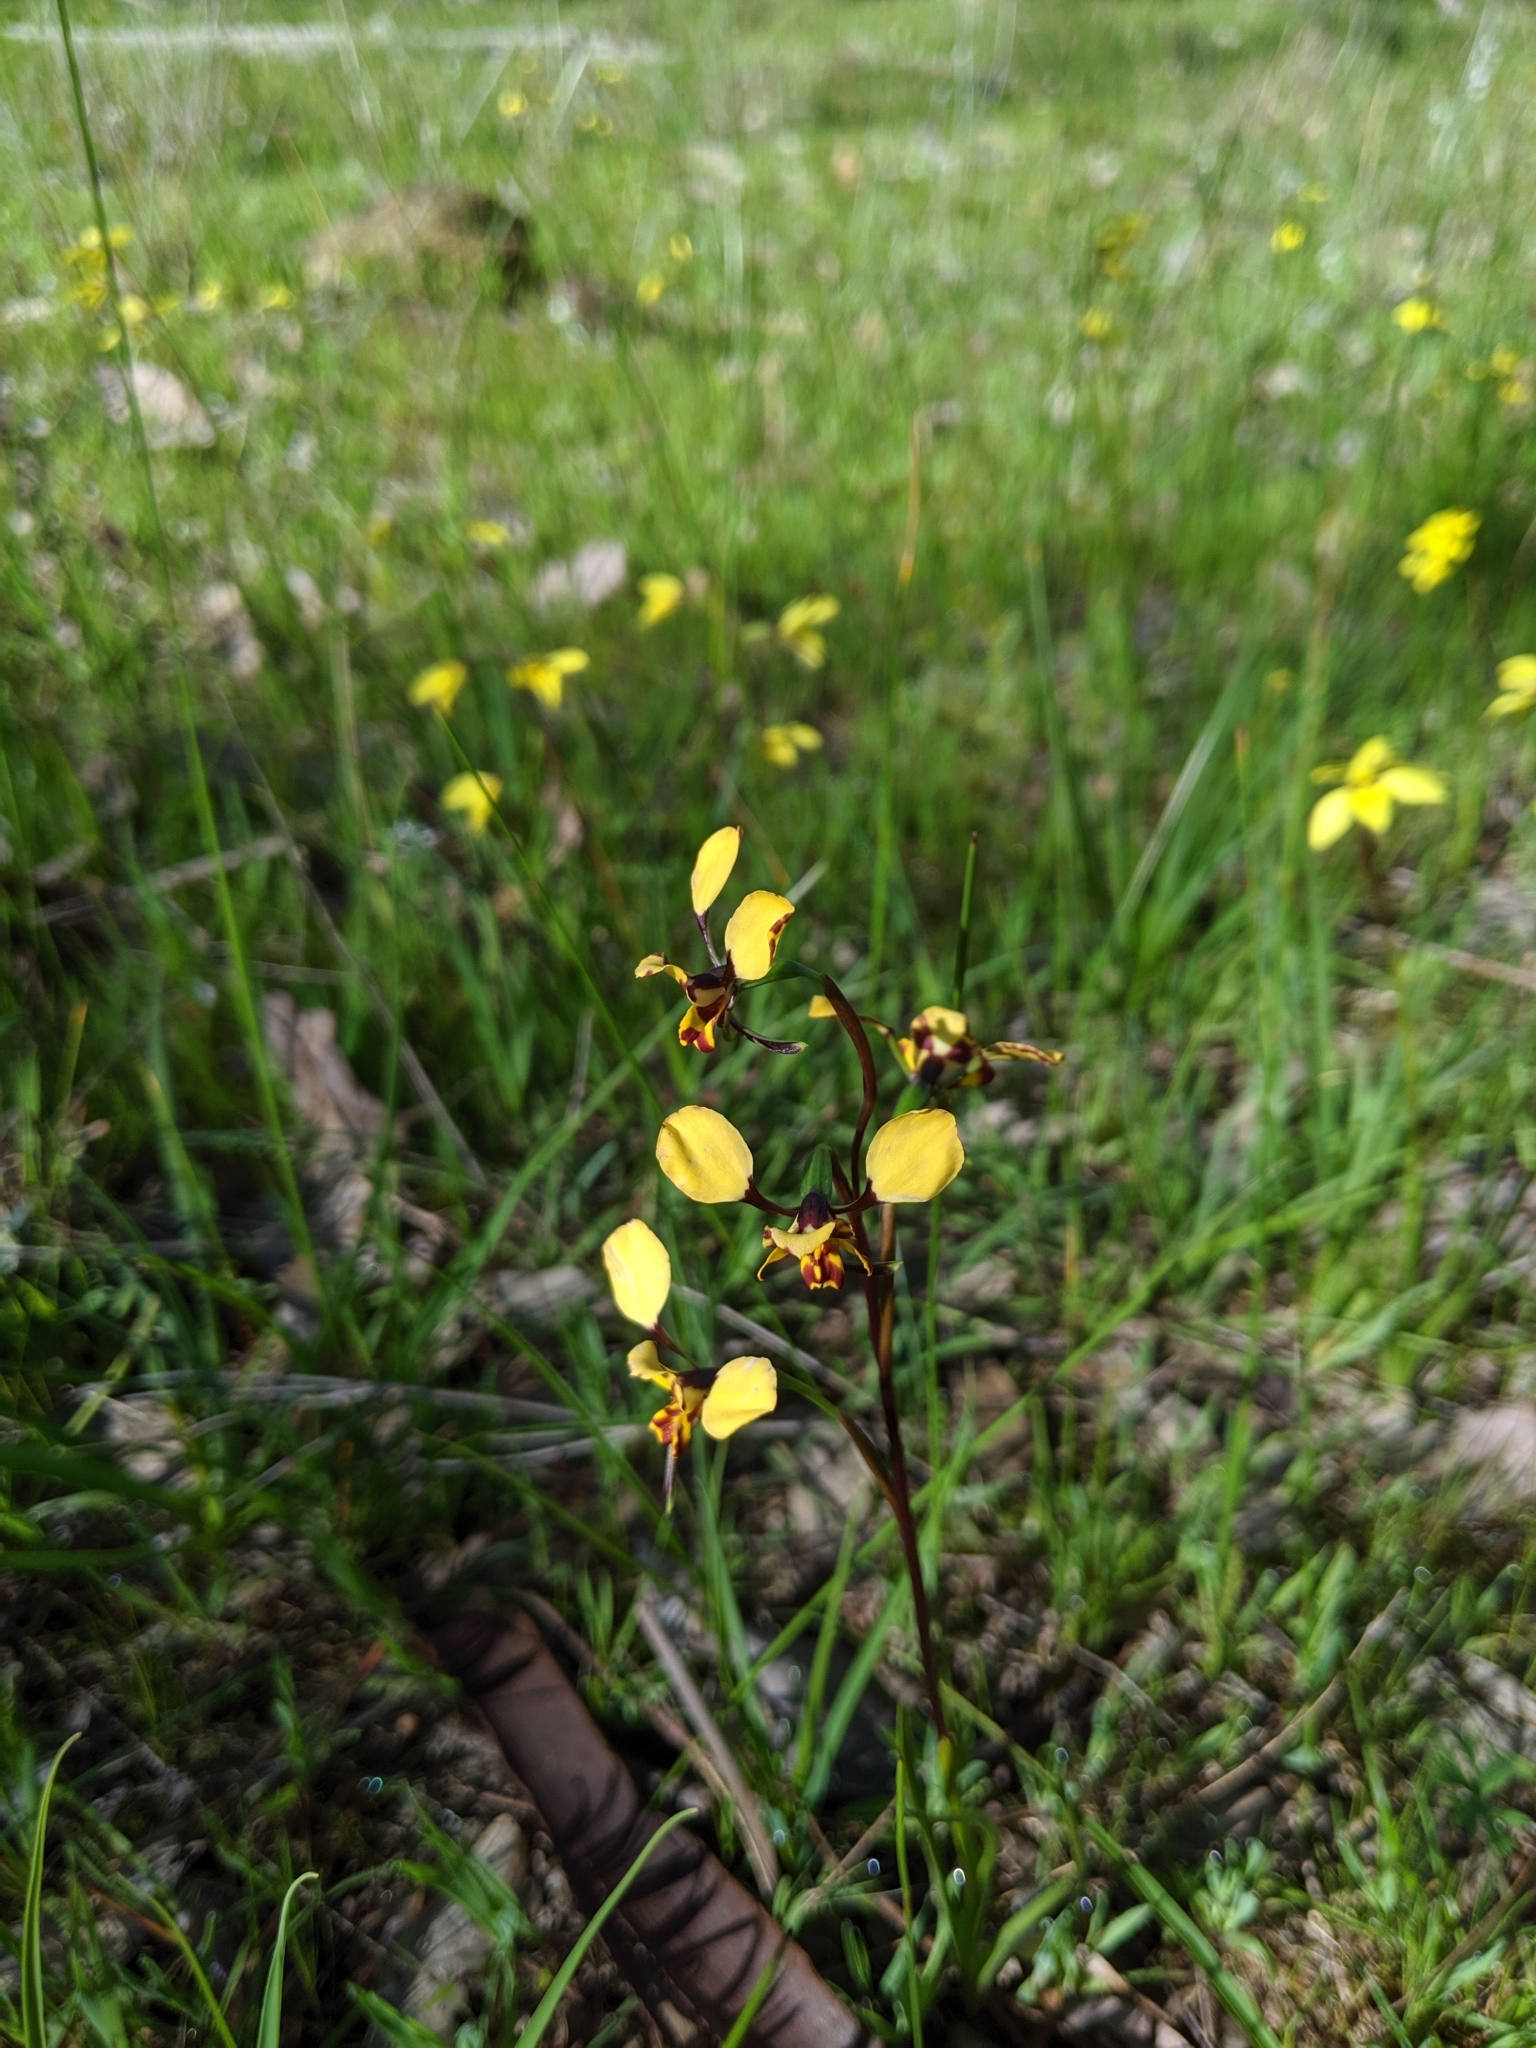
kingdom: Plantae
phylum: Tracheophyta
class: Liliopsida
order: Asparagales
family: Orchidaceae
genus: Diuris
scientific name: Diuris pardina
